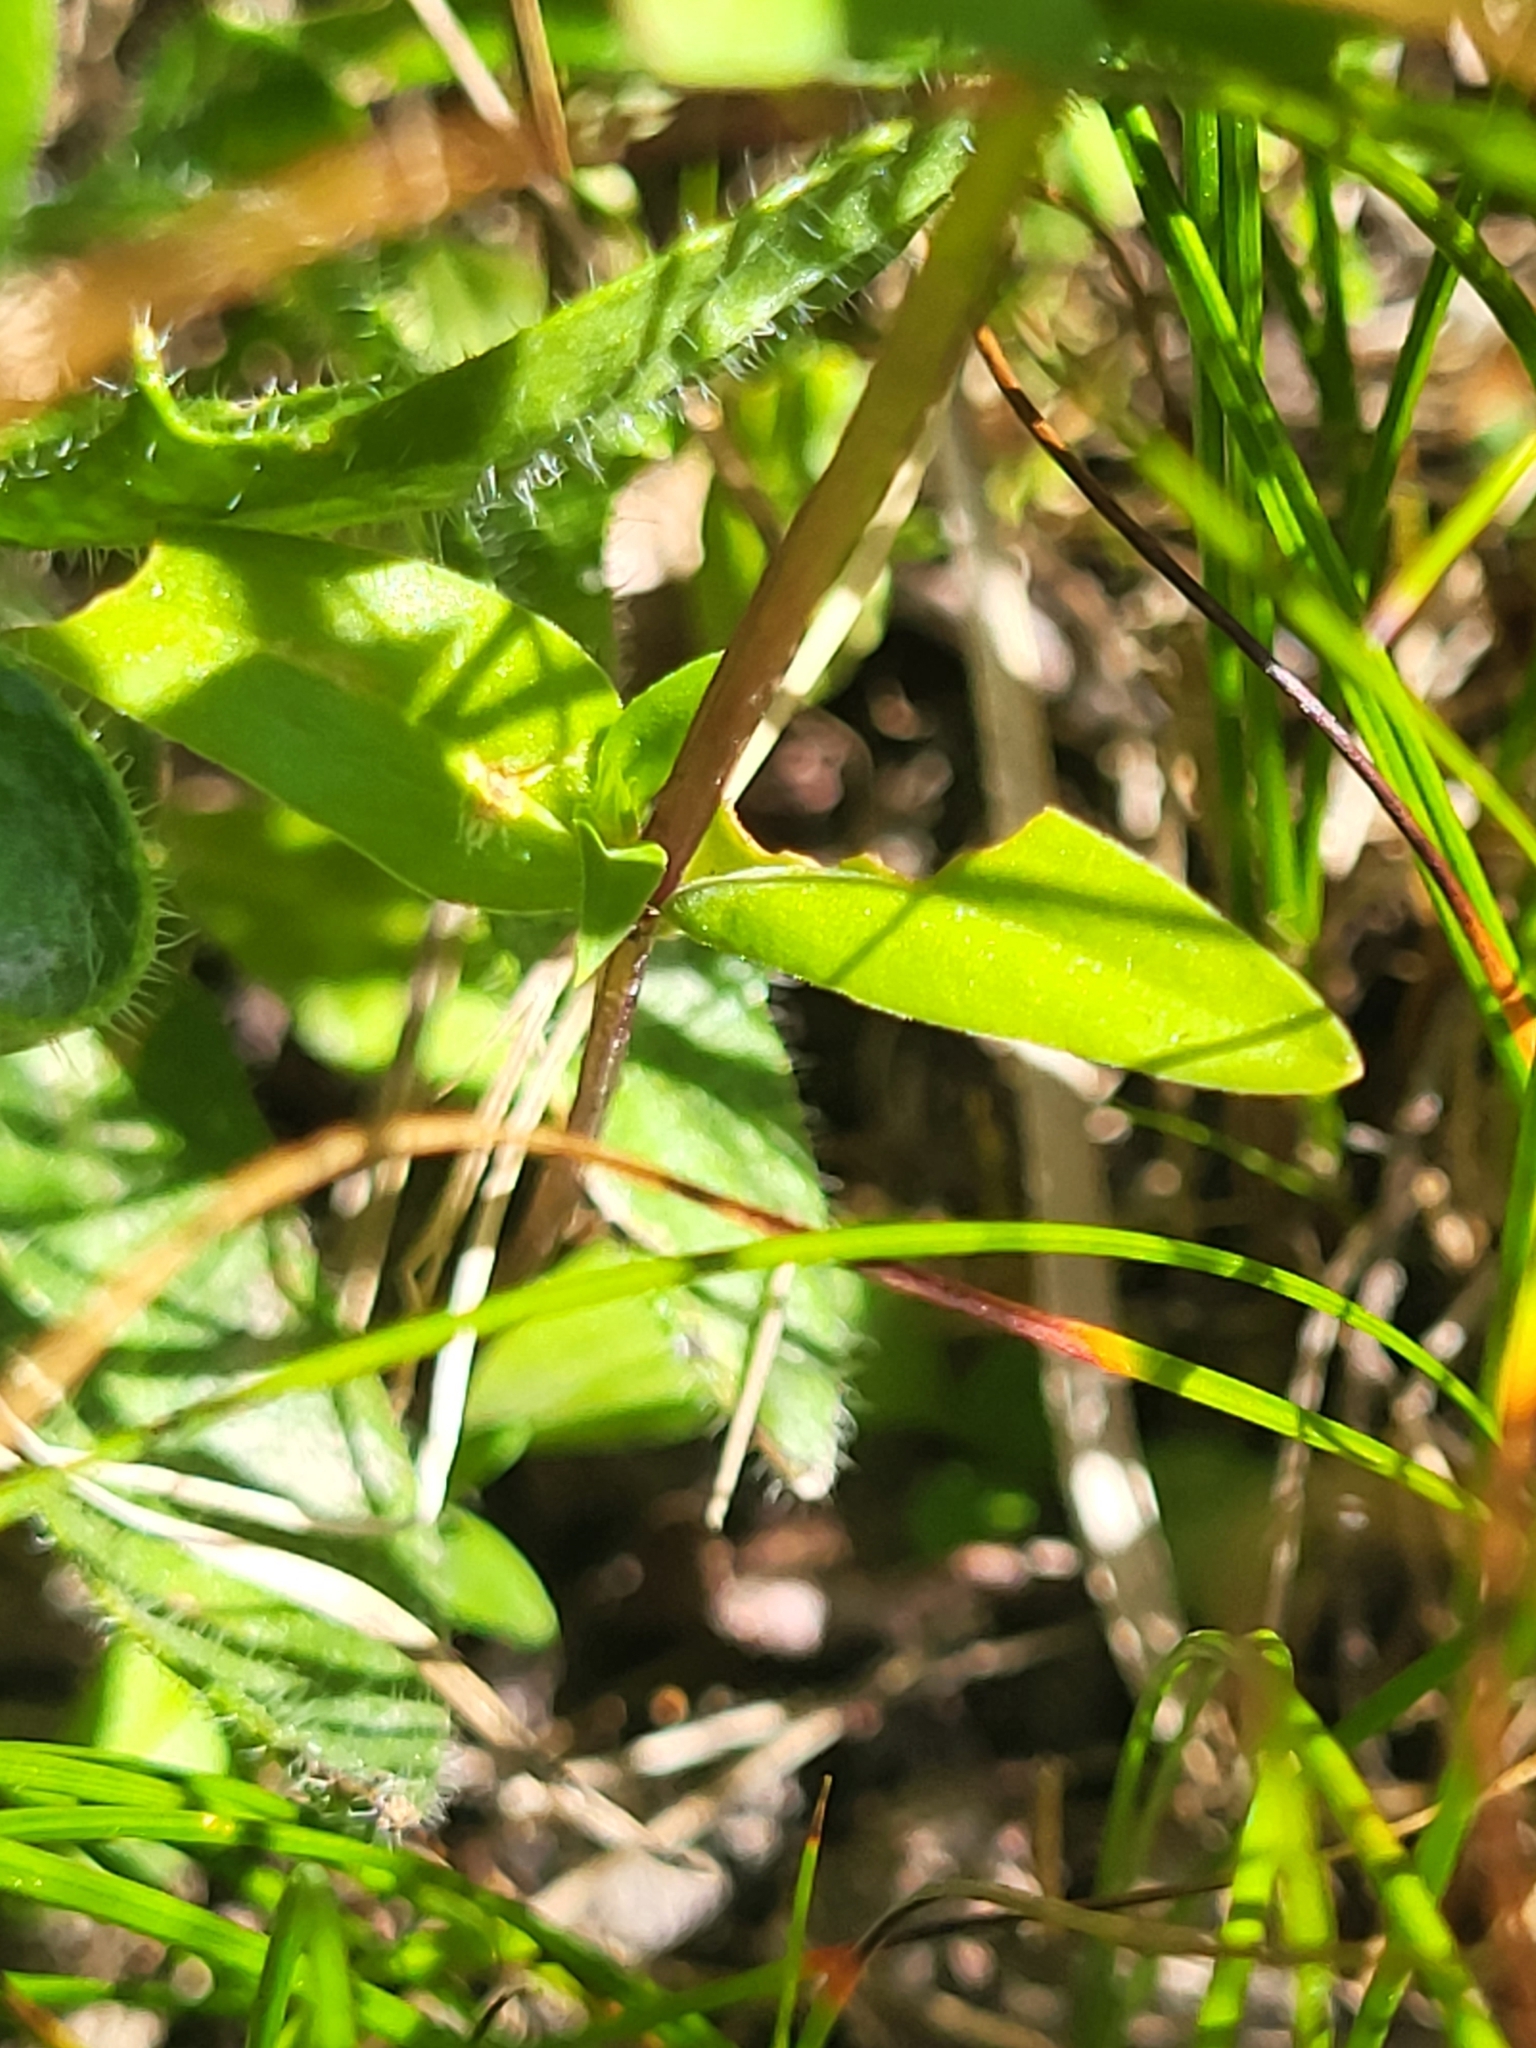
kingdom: Plantae
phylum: Tracheophyta
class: Magnoliopsida
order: Gentianales
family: Gentianaceae
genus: Gentianella
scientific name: Gentianella anisodonta
